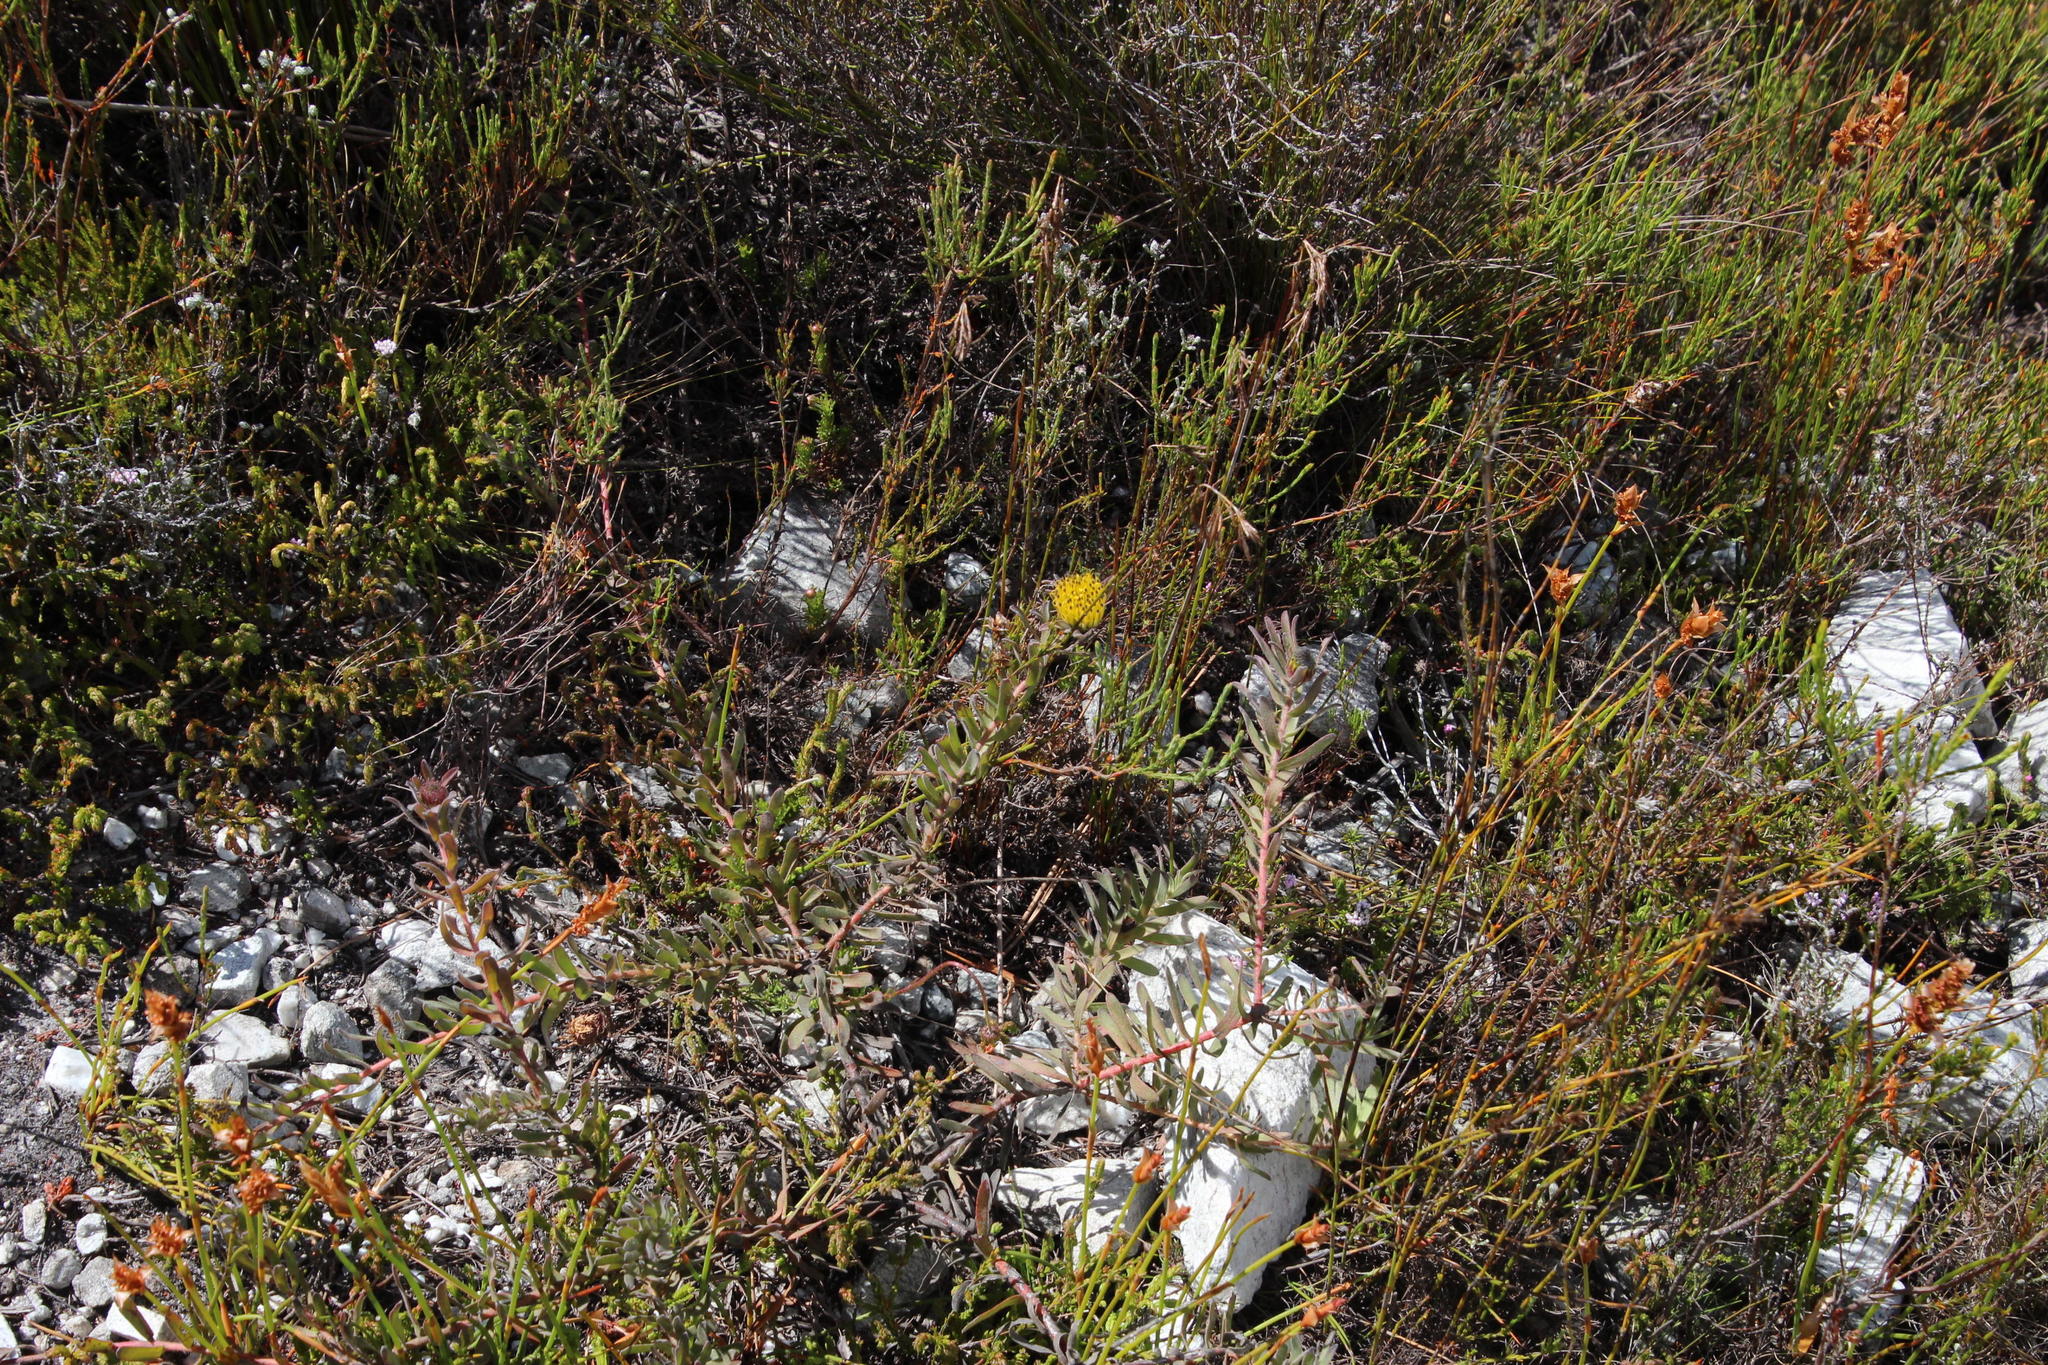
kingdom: Plantae
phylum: Tracheophyta
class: Magnoliopsida
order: Proteales
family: Proteaceae
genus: Leucospermum
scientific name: Leucospermum gracile
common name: Hermanus pincushion
